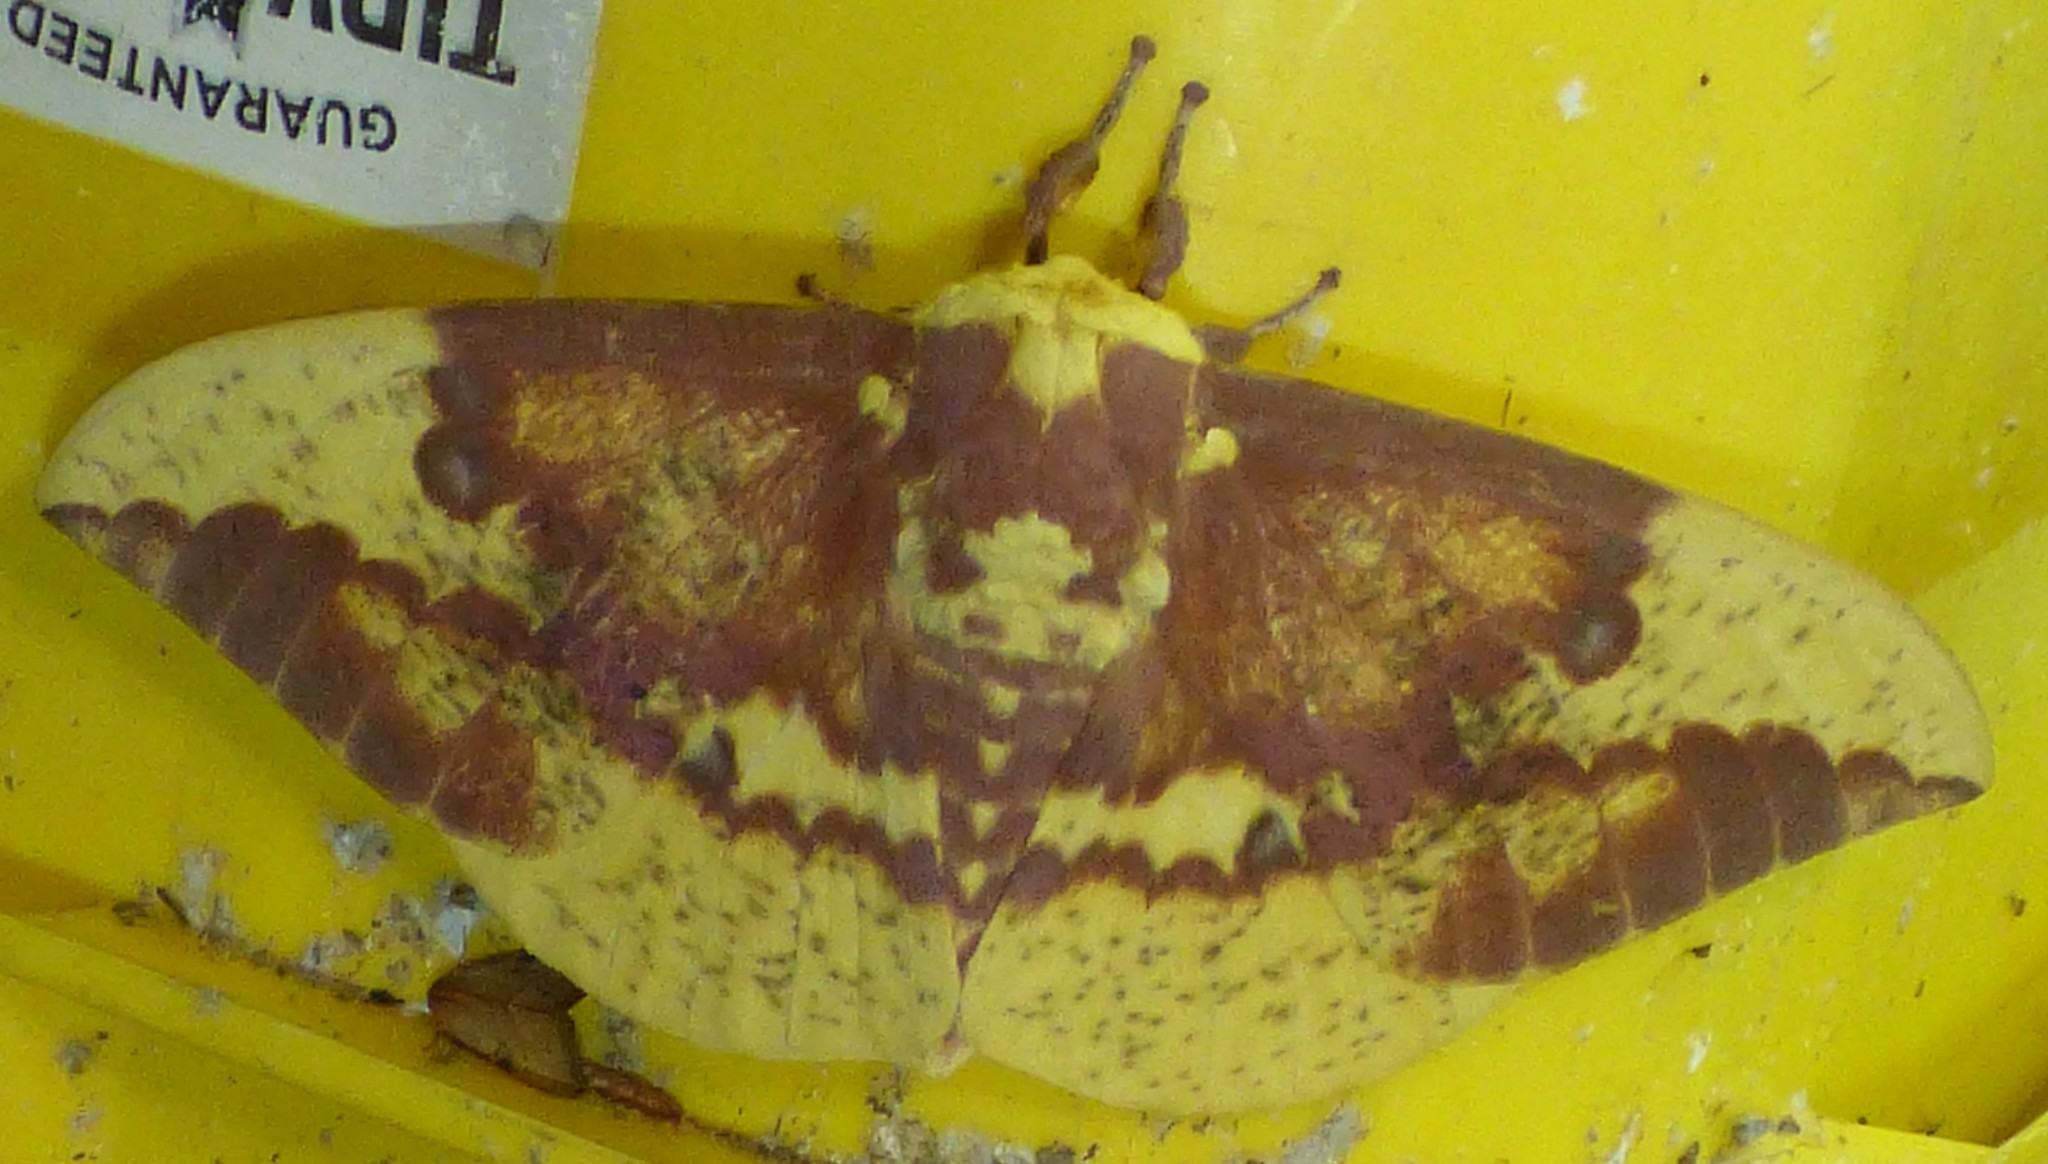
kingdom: Animalia
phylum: Arthropoda
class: Insecta
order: Lepidoptera
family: Saturniidae
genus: Eacles
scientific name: Eacles imperialis
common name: Imperial moth
